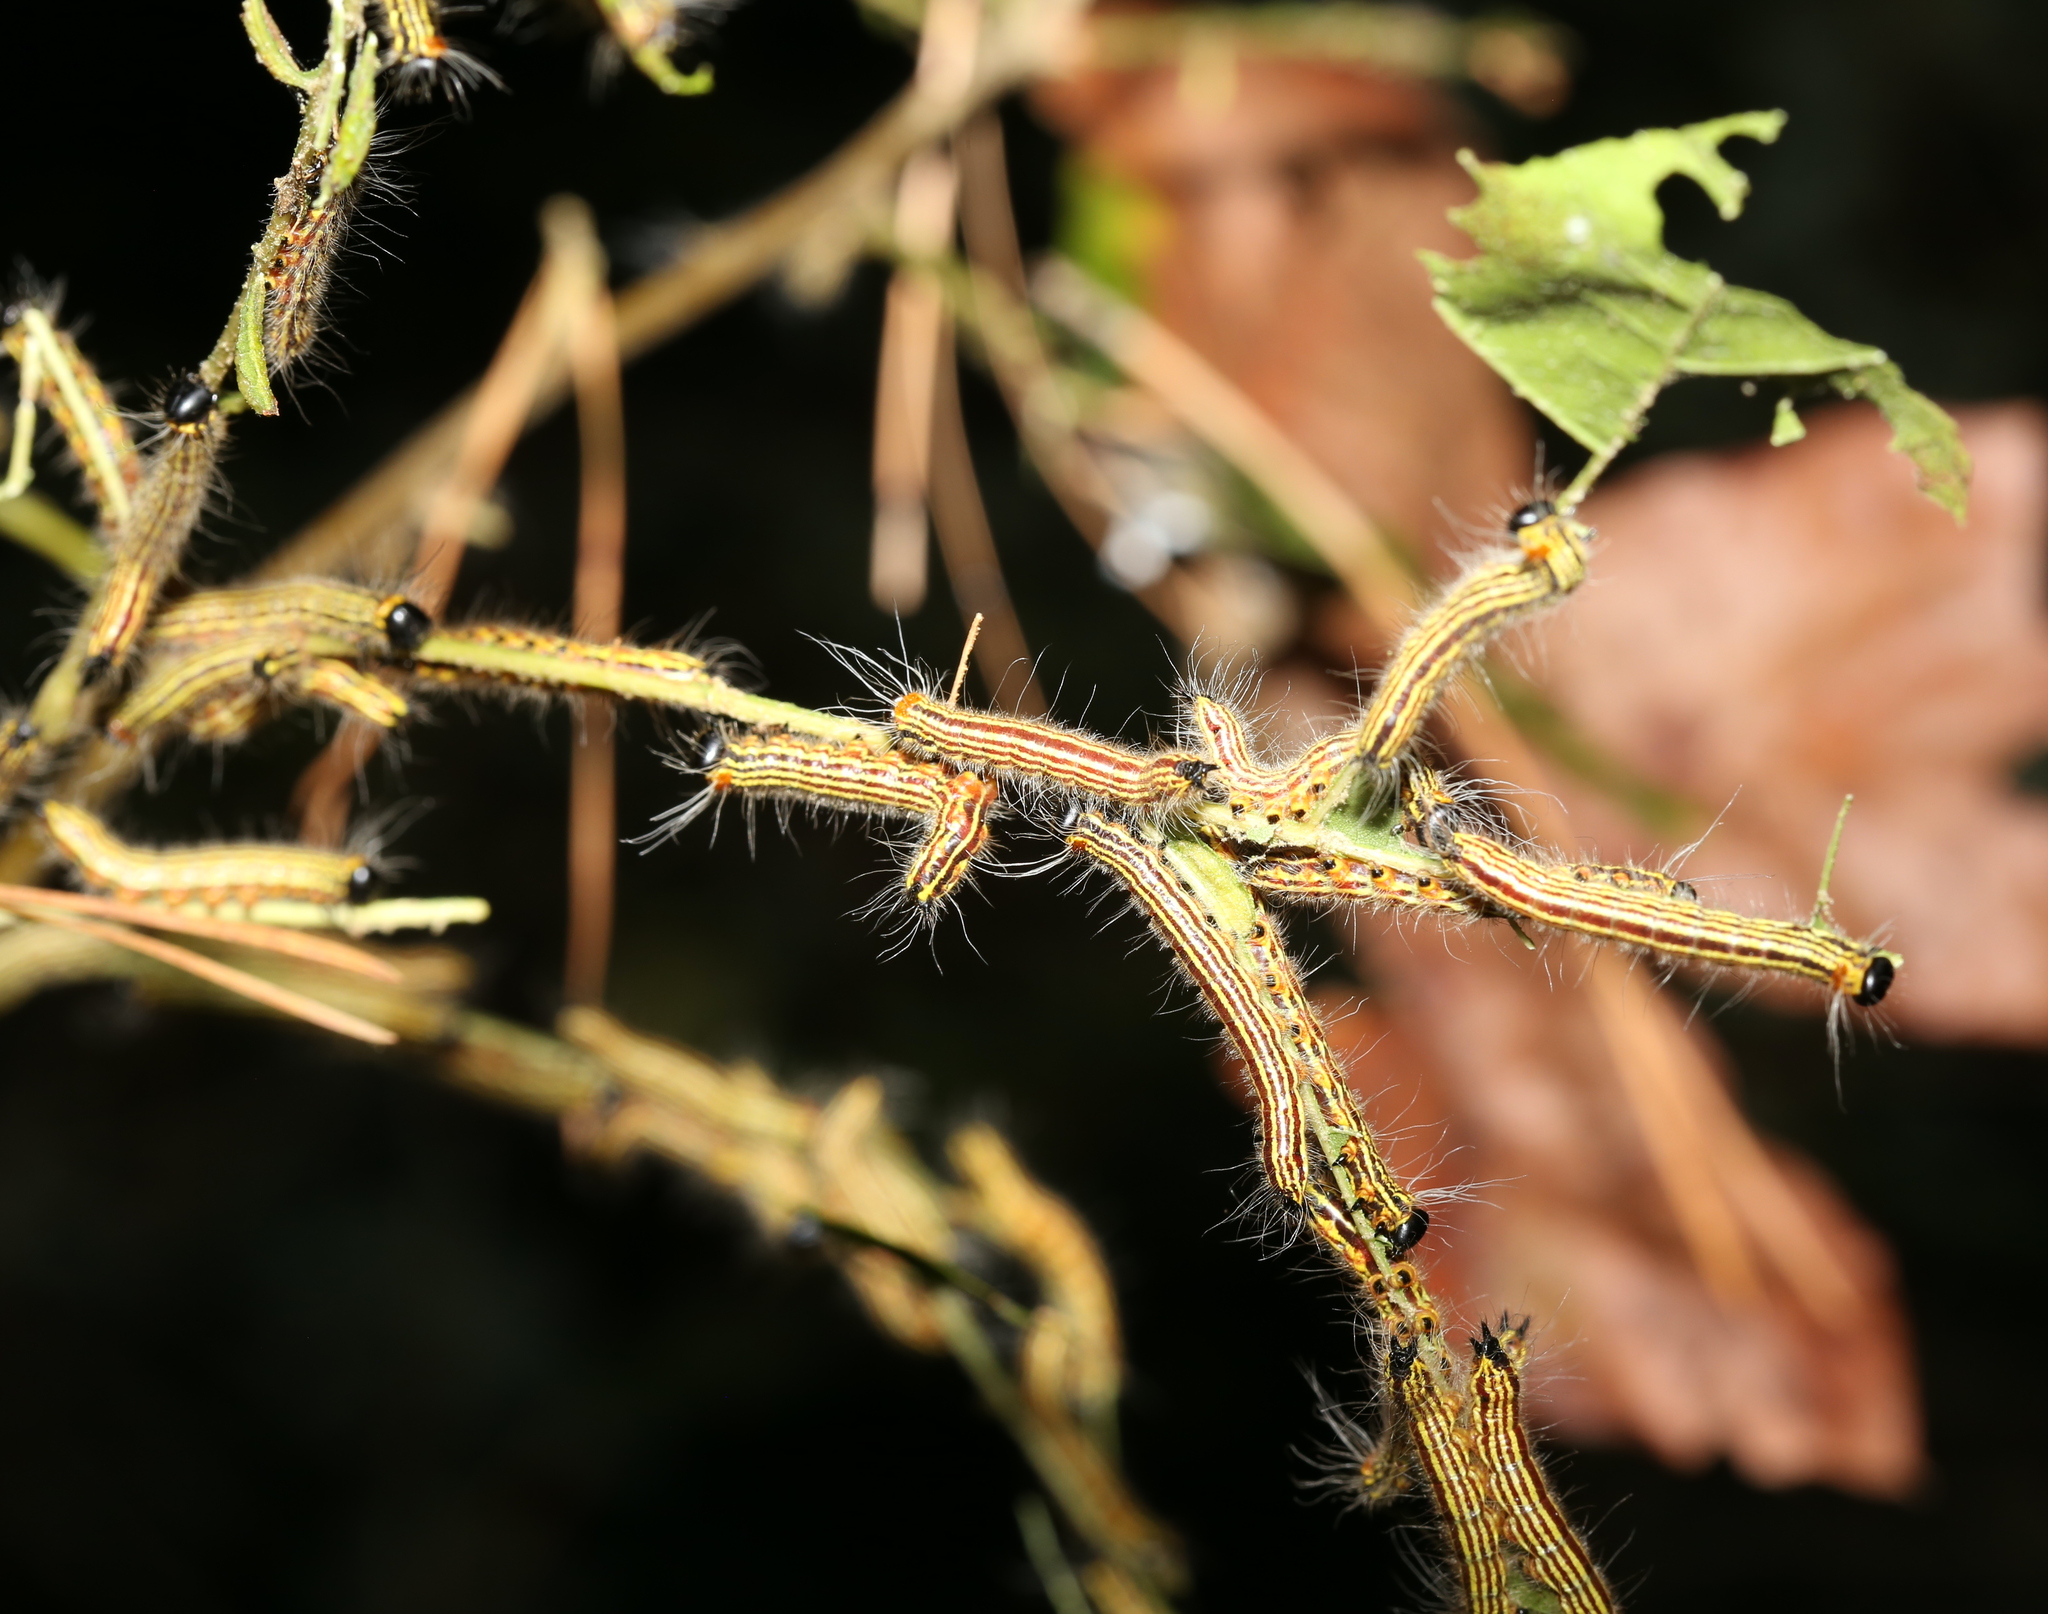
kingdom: Animalia
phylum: Arthropoda
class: Insecta
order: Lepidoptera
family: Notodontidae
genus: Datana
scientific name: Datana ministra
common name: Yellow-necked caterpillar moth
